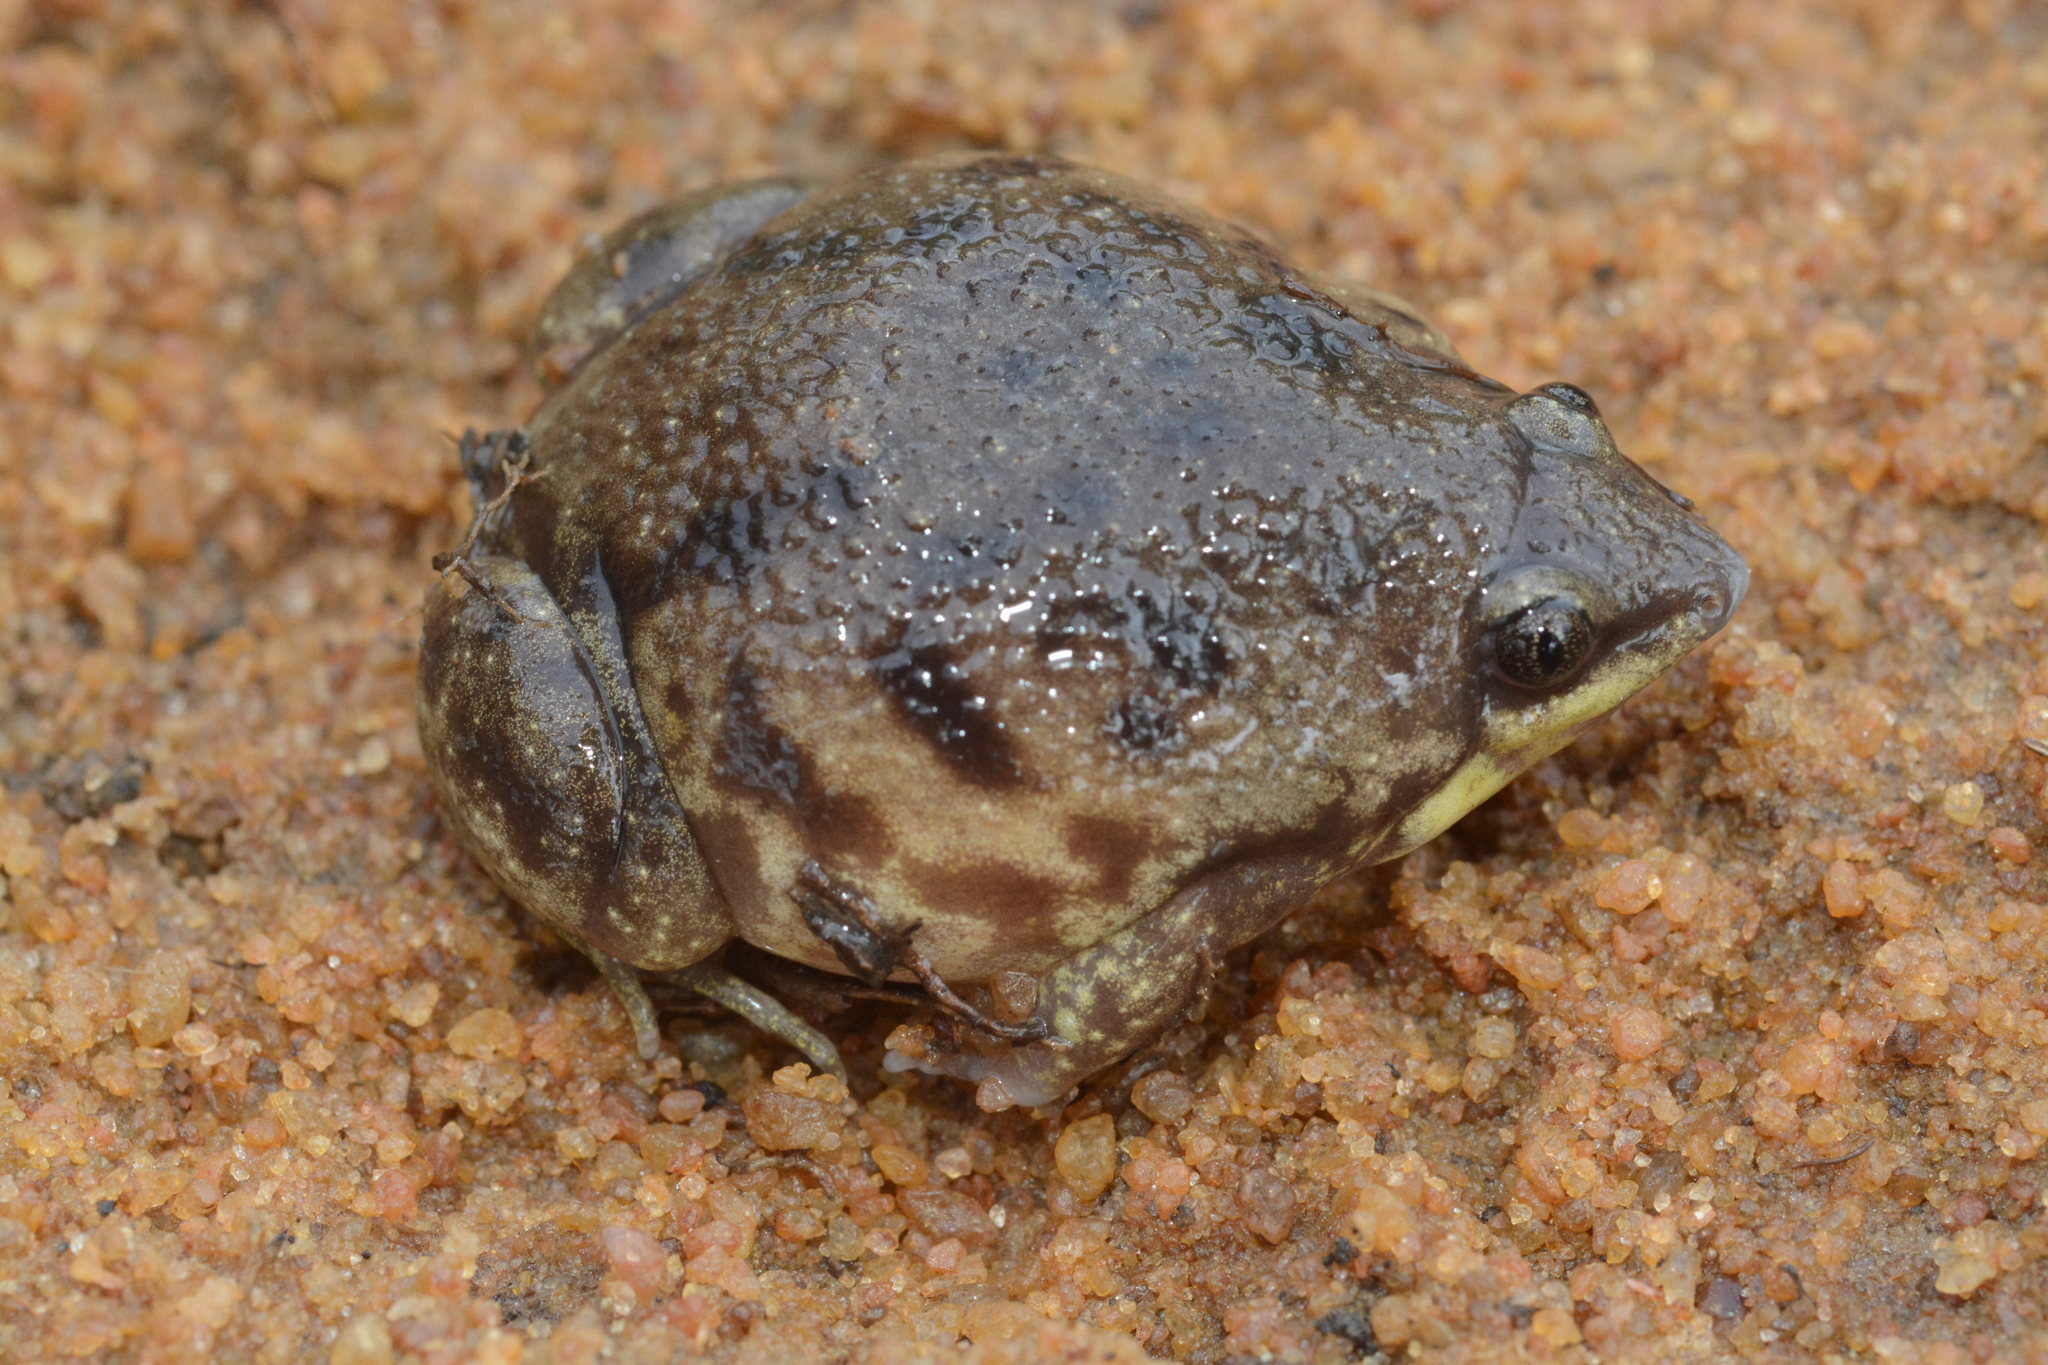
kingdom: Animalia
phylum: Chordata
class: Amphibia
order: Anura
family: Hemisotidae
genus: Hemisus
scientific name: Hemisus marmoratus
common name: Mottled shovel-nosed frog
